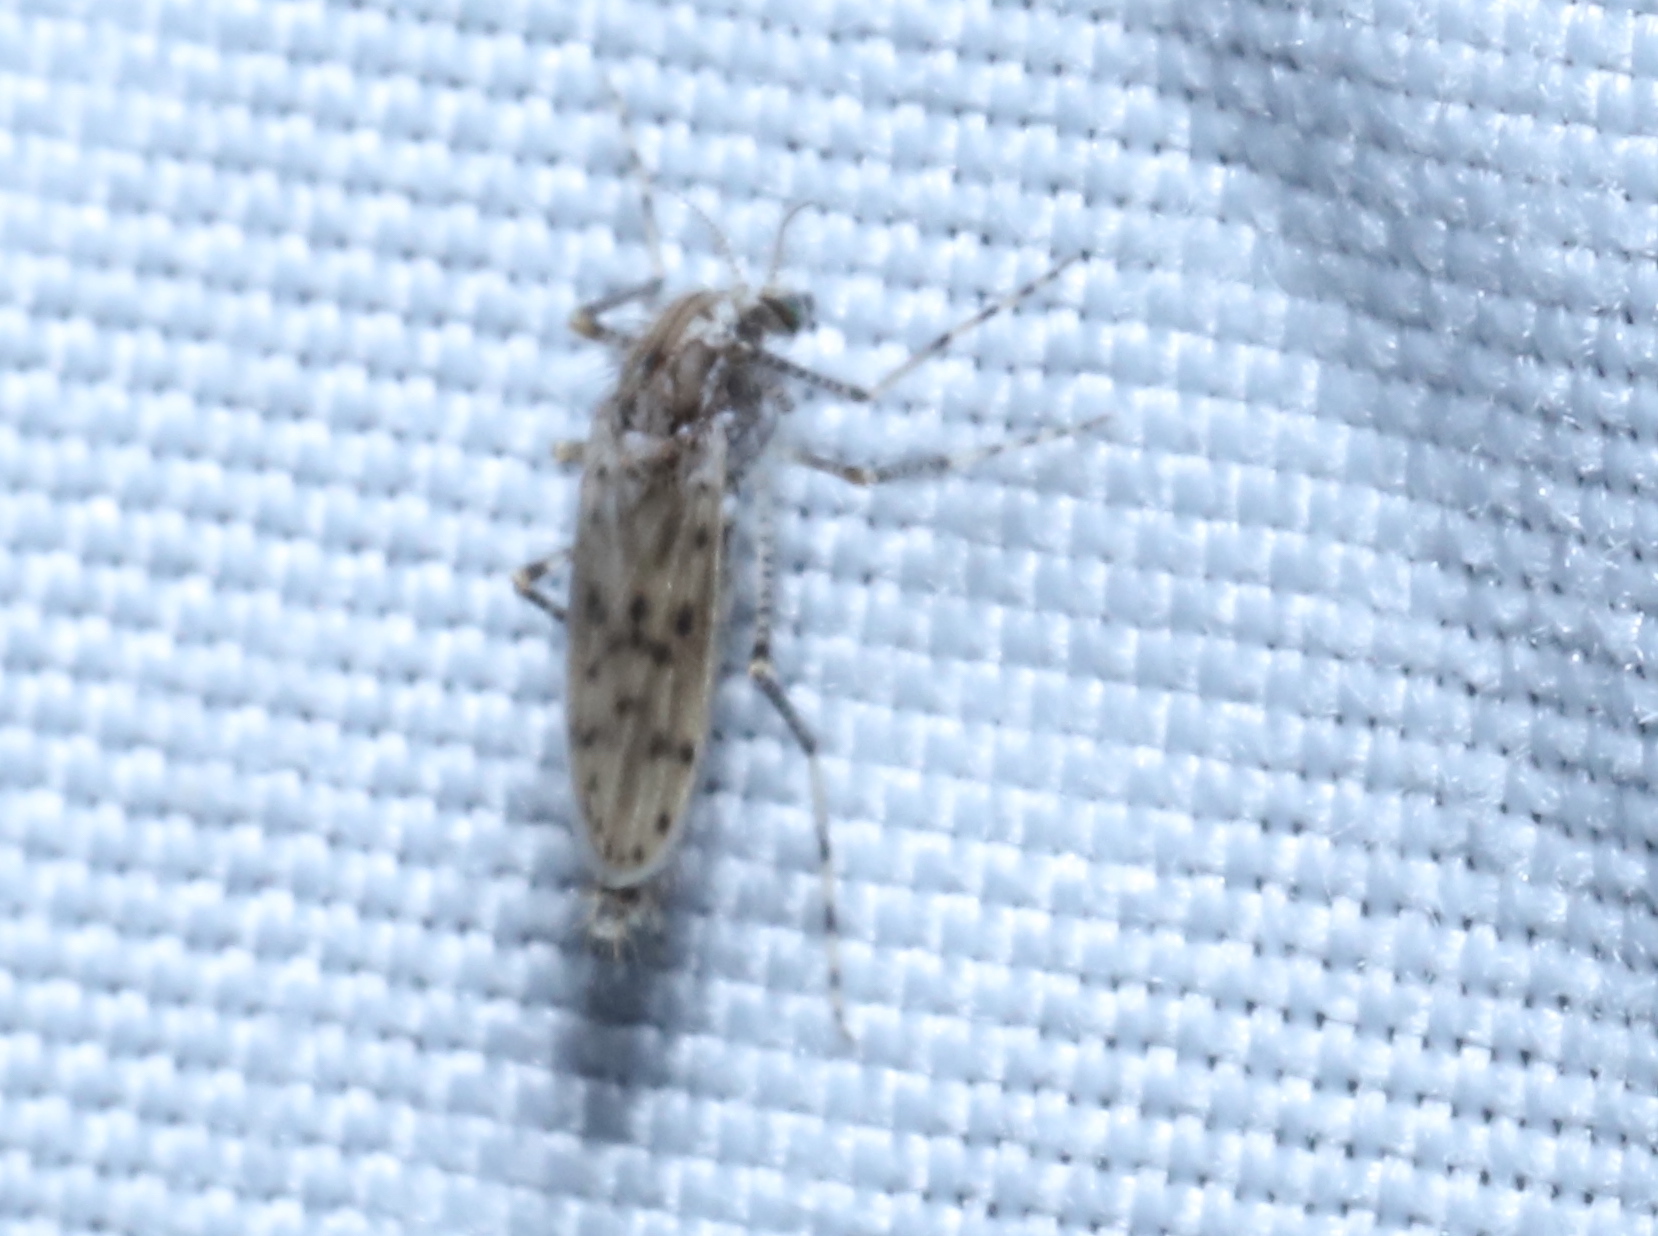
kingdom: Animalia
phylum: Arthropoda
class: Insecta
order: Diptera
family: Chaoboridae
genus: Chaoborus
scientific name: Chaoborus punctipennis
